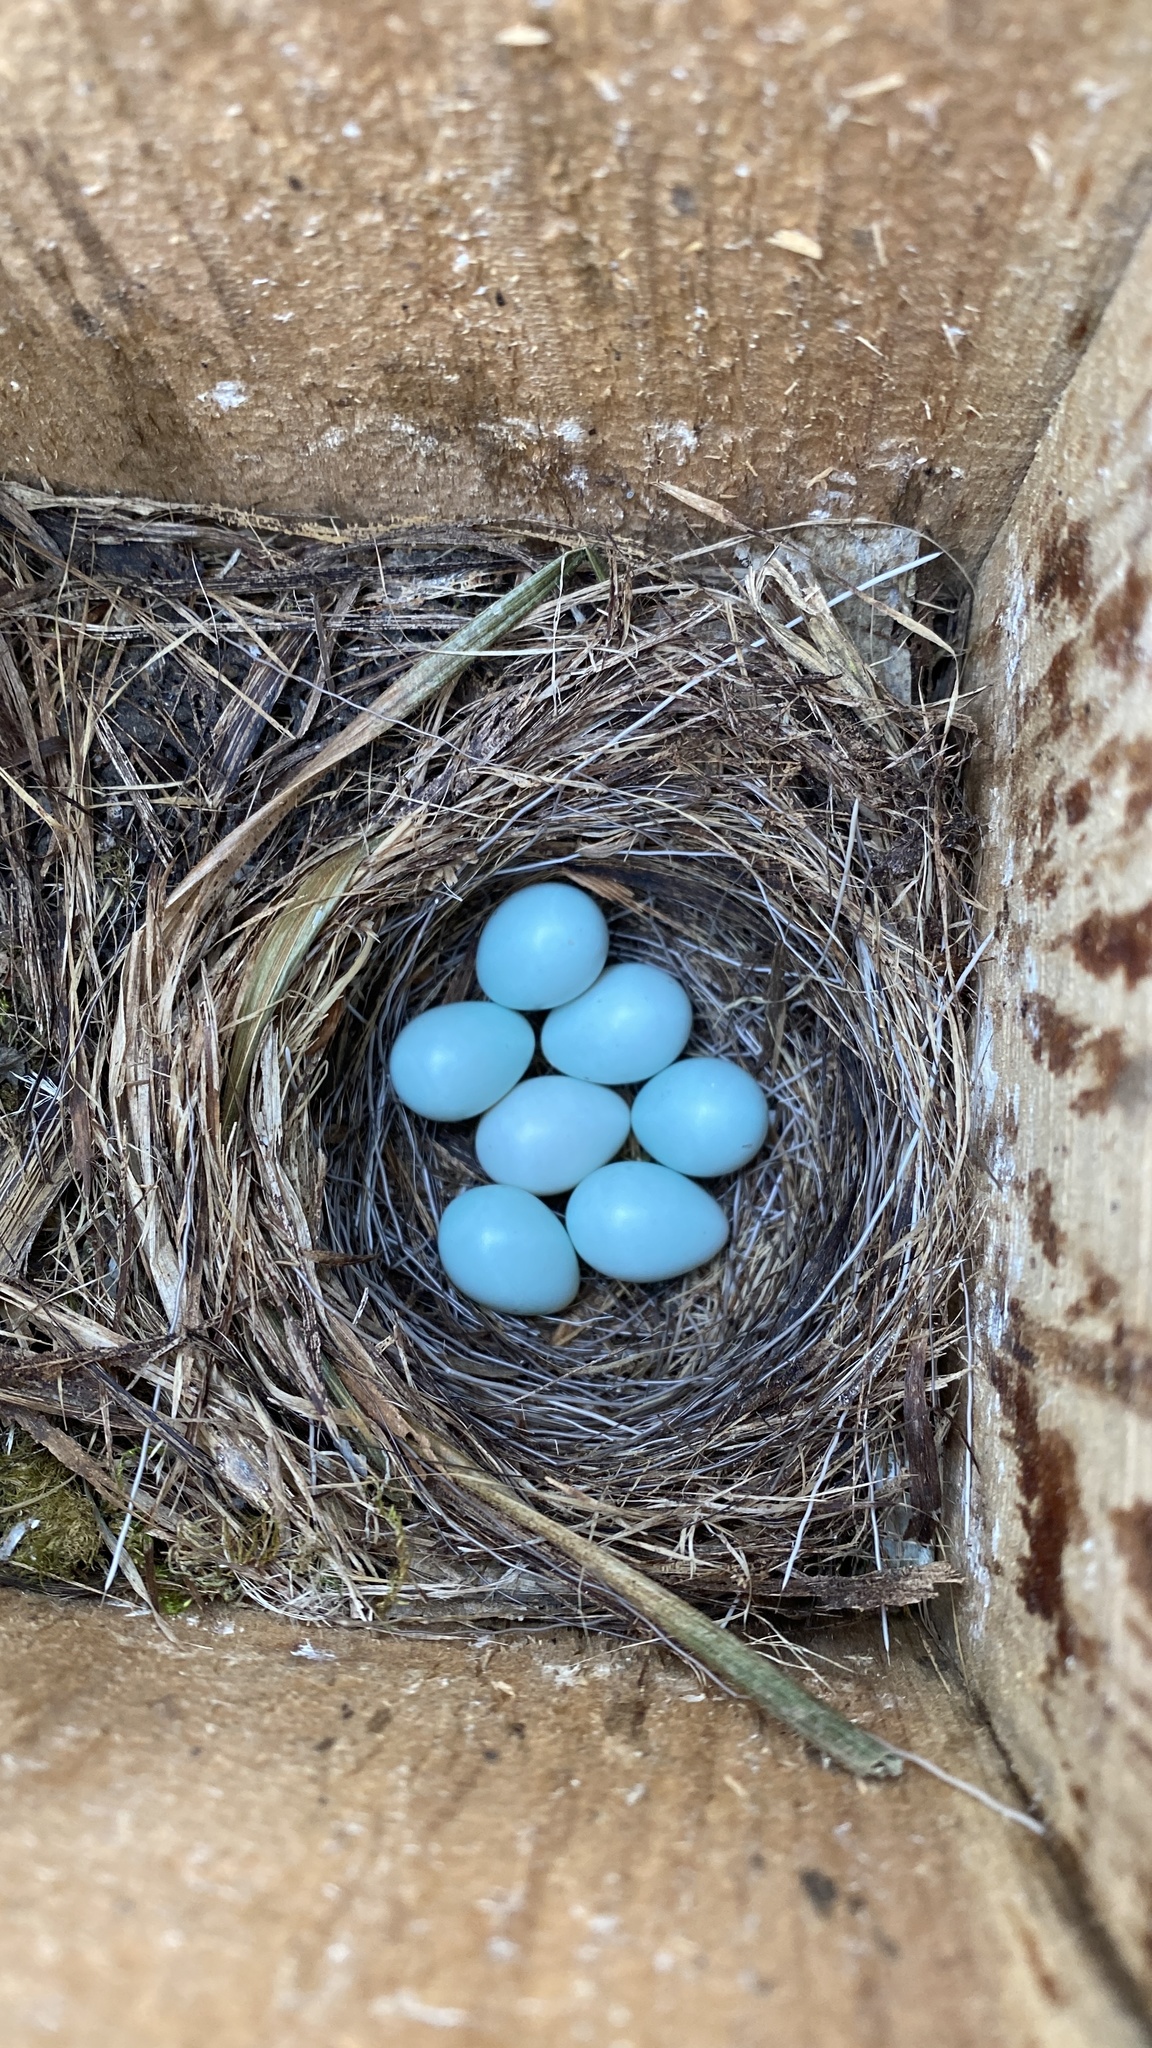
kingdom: Animalia
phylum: Chordata
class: Aves
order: Passeriformes
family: Muscicapidae
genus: Ficedula
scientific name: Ficedula hypoleuca
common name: European pied flycatcher
